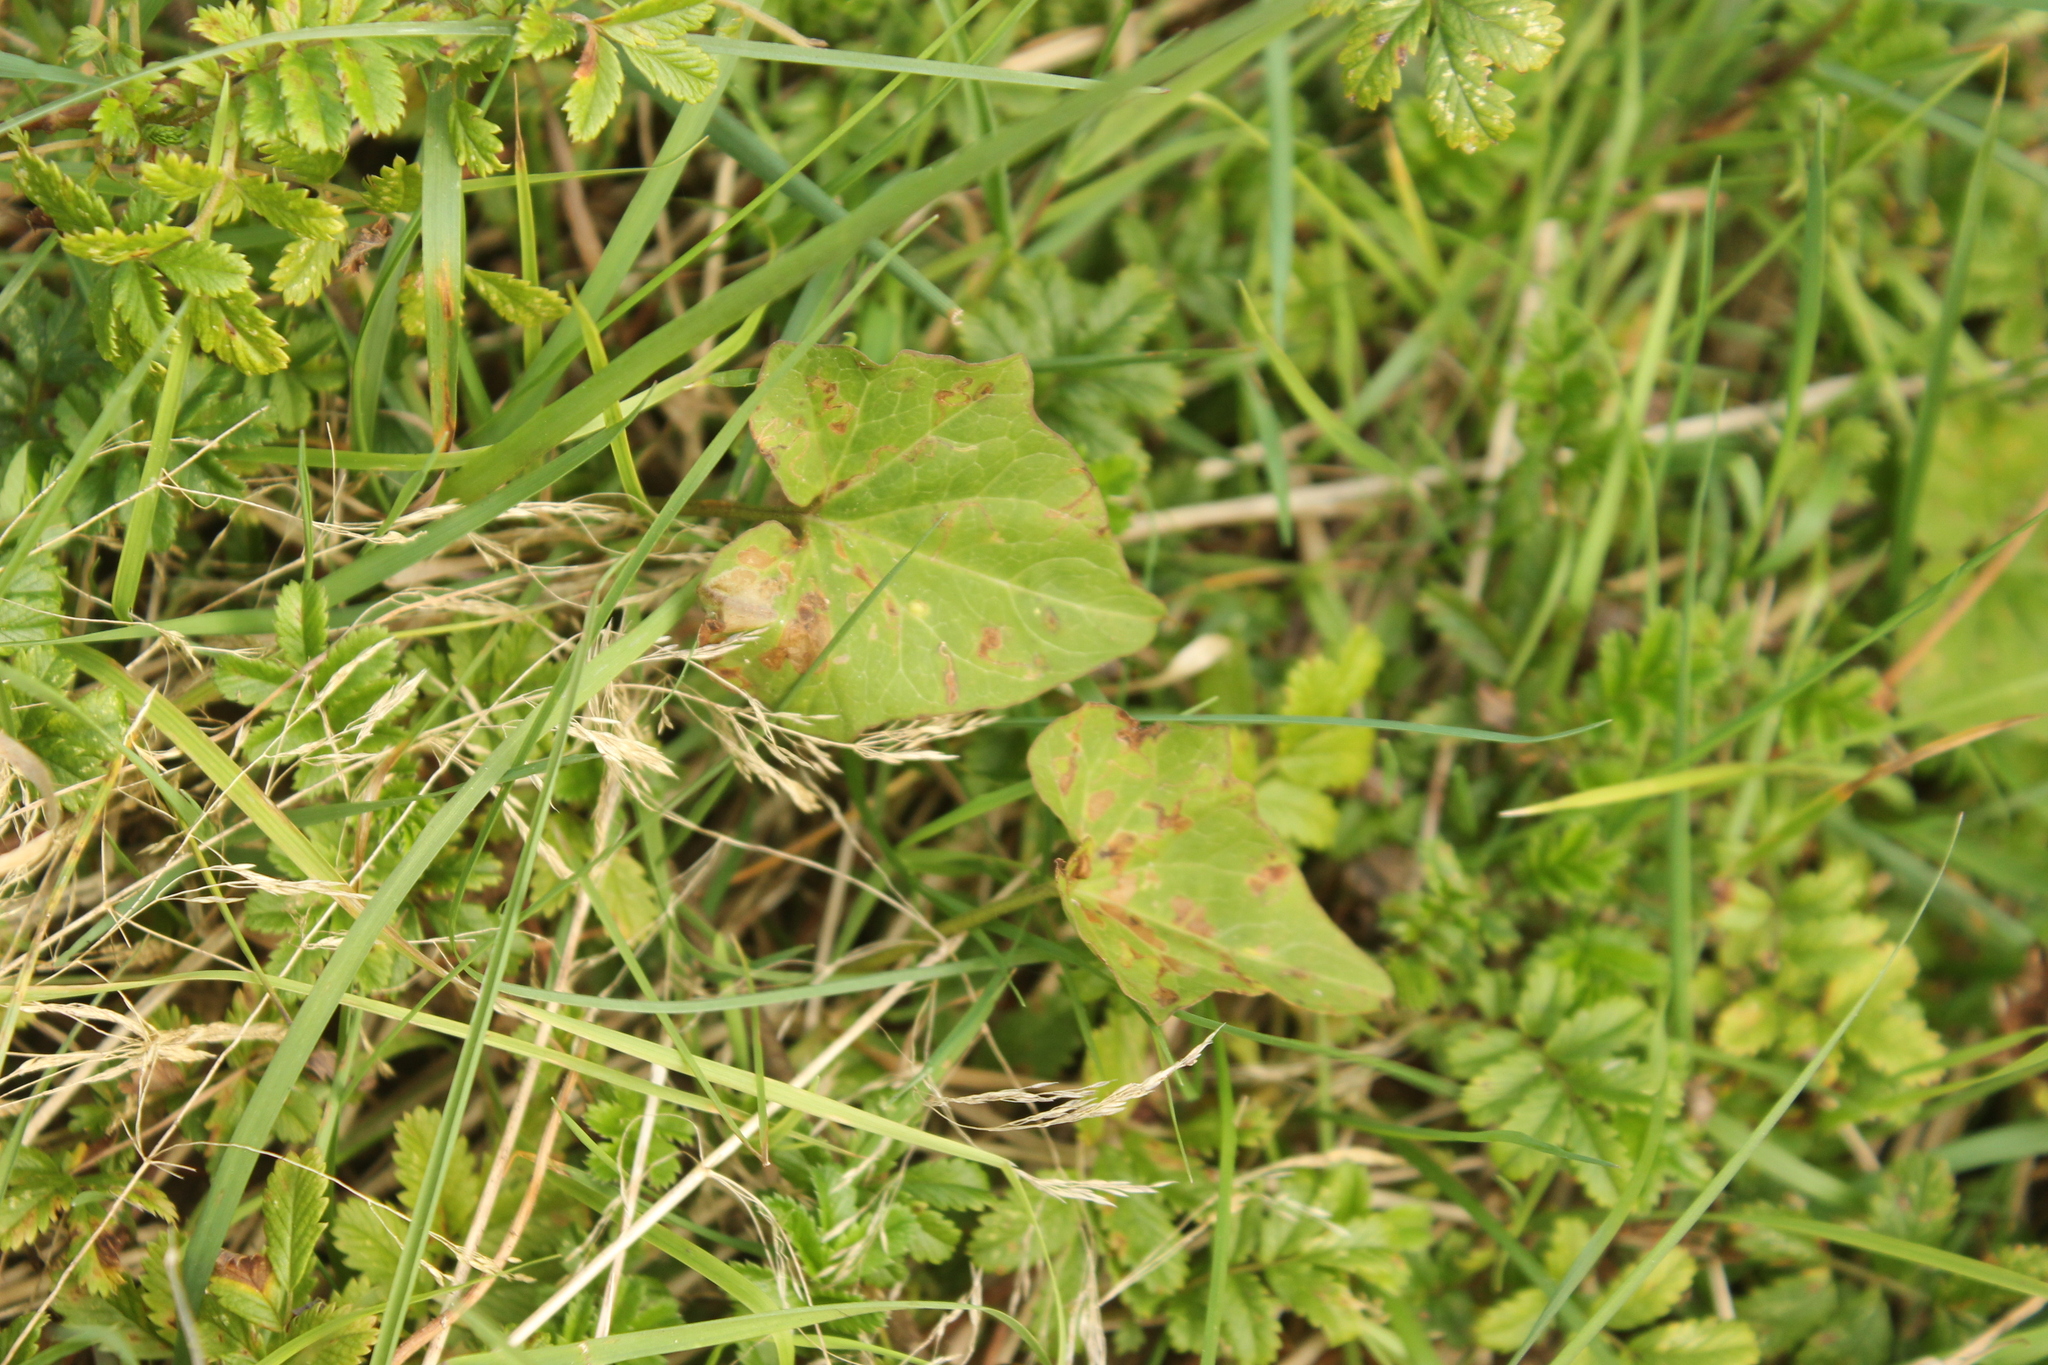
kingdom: Plantae
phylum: Tracheophyta
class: Magnoliopsida
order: Solanales
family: Convolvulaceae
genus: Calystegia
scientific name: Calystegia tuguriorum
